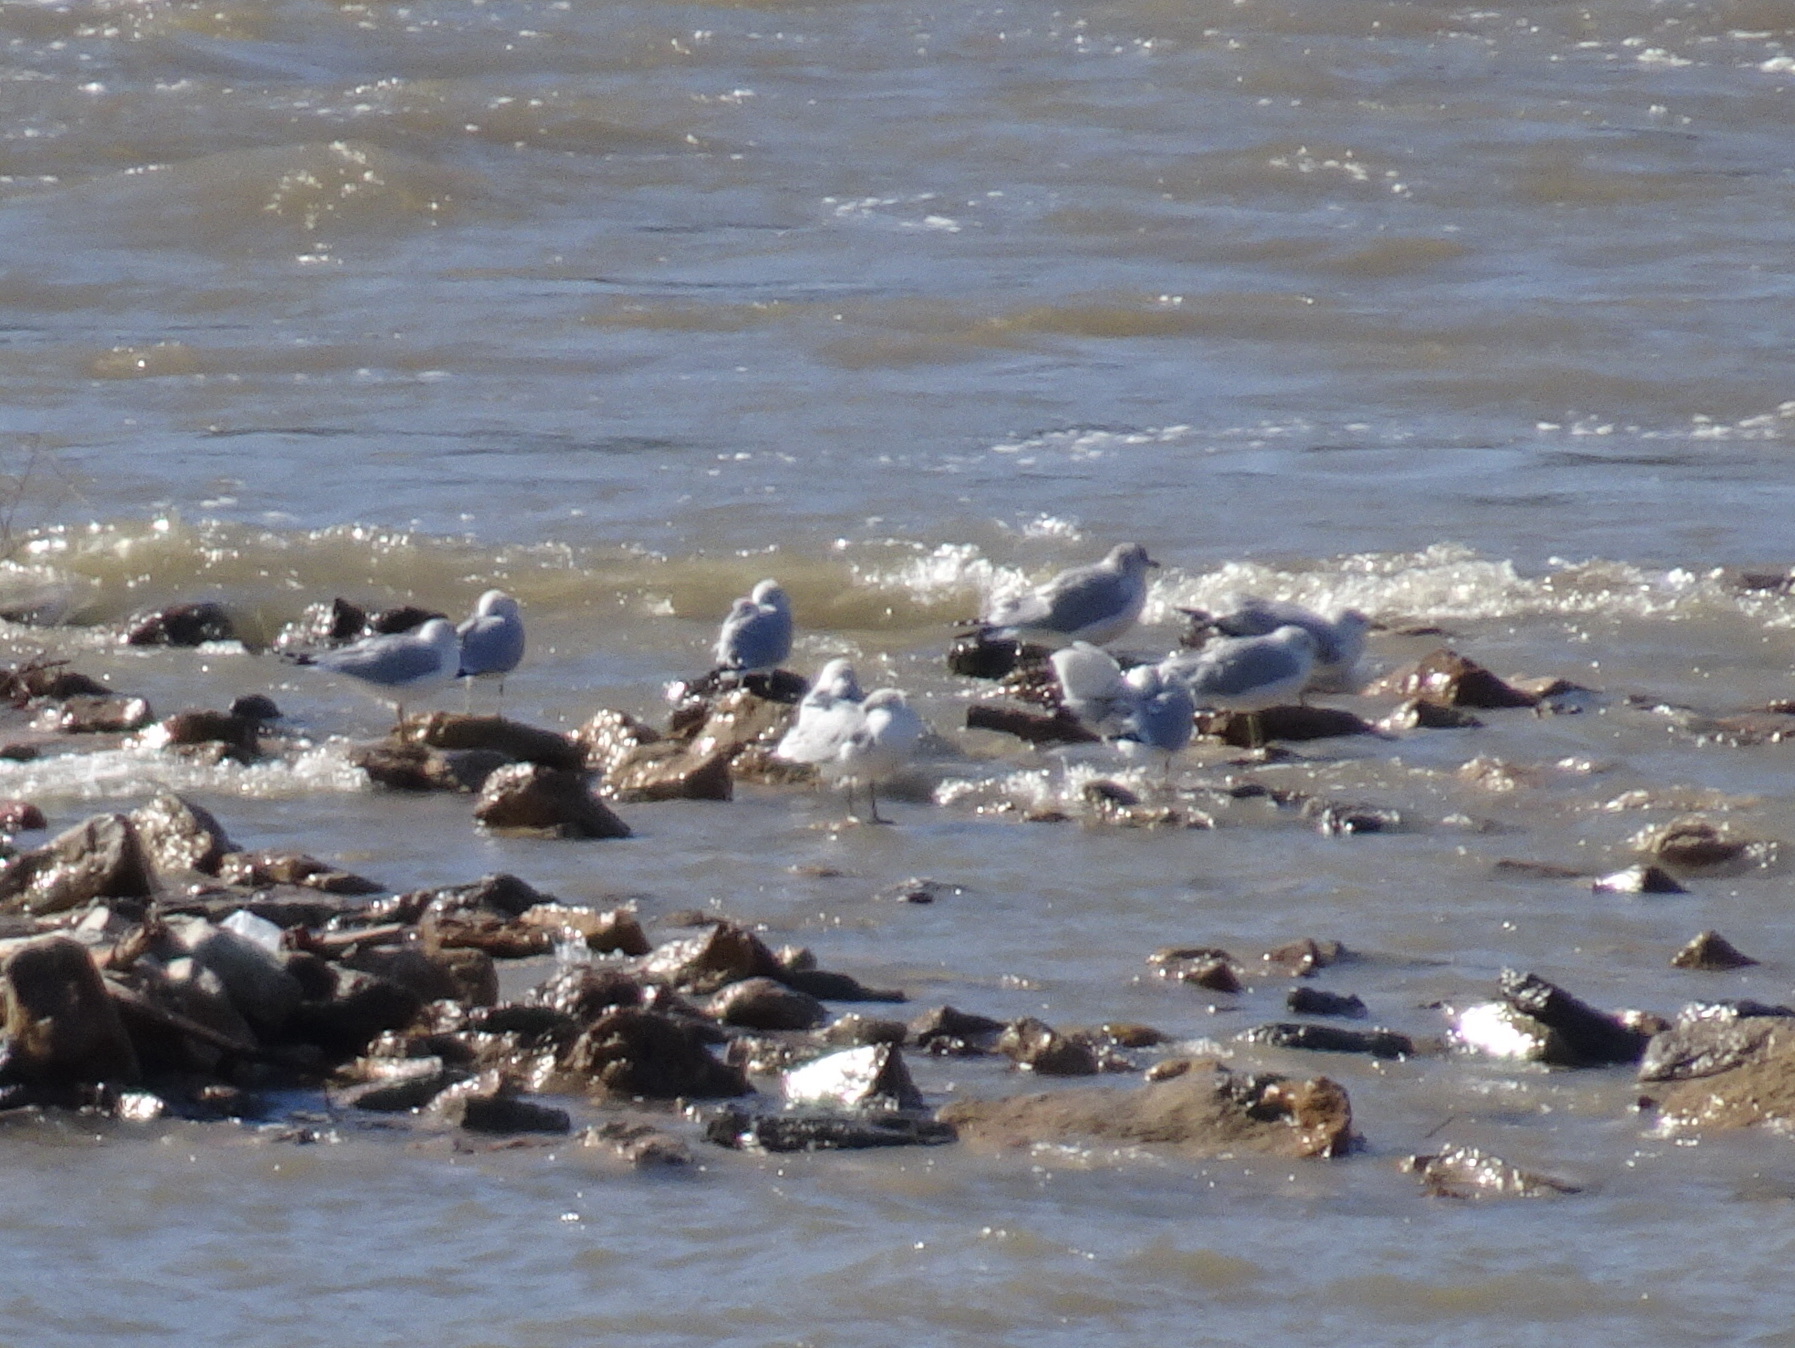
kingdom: Animalia
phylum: Chordata
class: Aves
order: Charadriiformes
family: Laridae
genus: Larus
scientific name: Larus delawarensis
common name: Ring-billed gull
